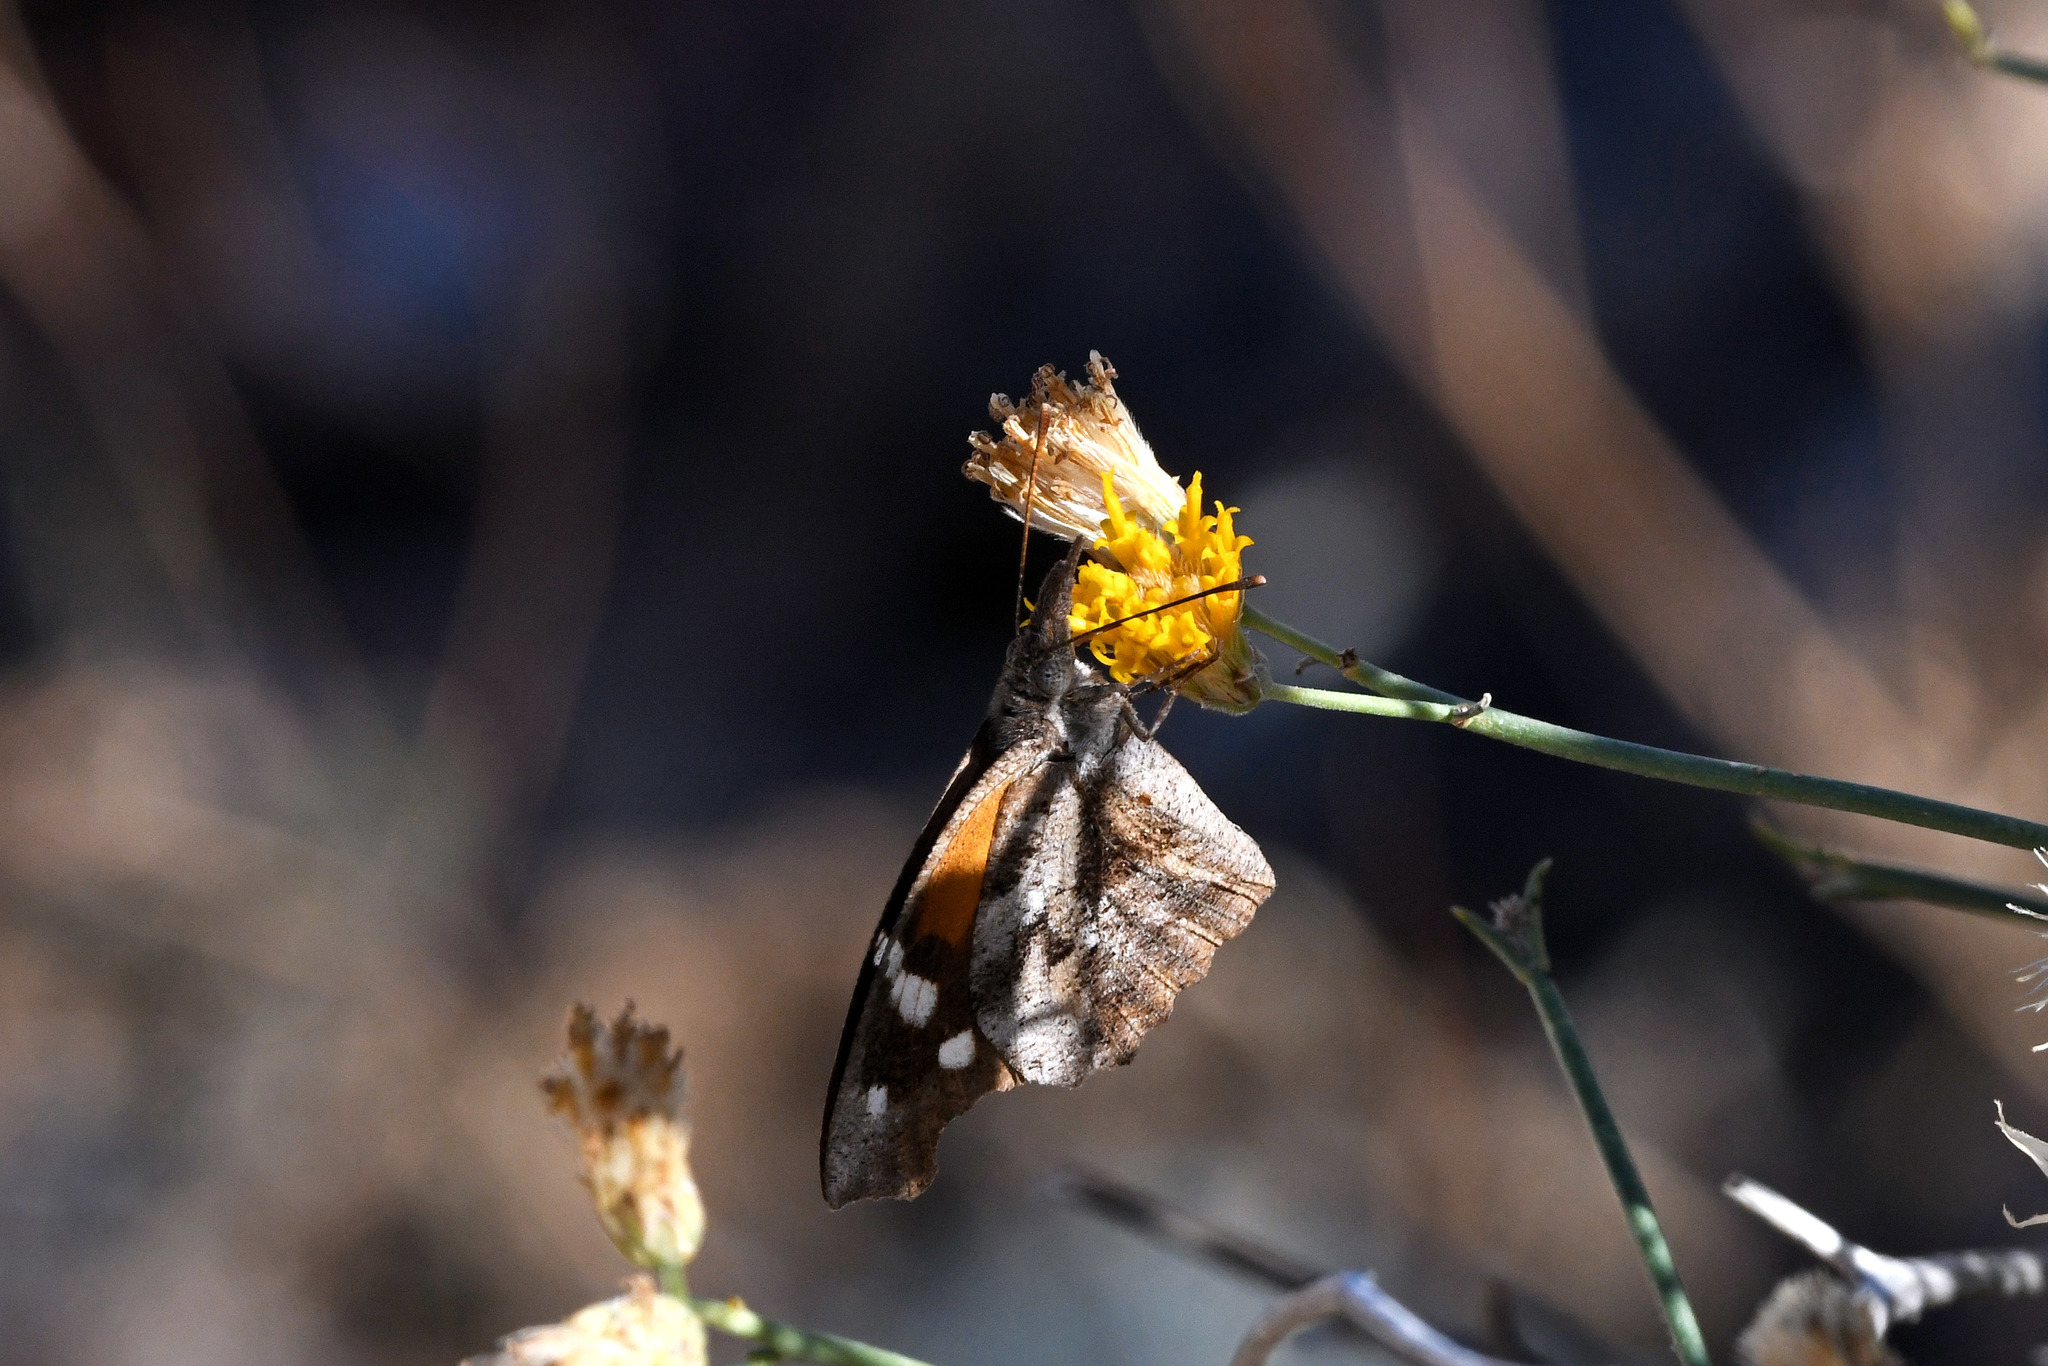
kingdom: Animalia
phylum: Arthropoda
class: Insecta
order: Lepidoptera
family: Nymphalidae
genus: Libytheana
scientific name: Libytheana carinenta
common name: American snout
